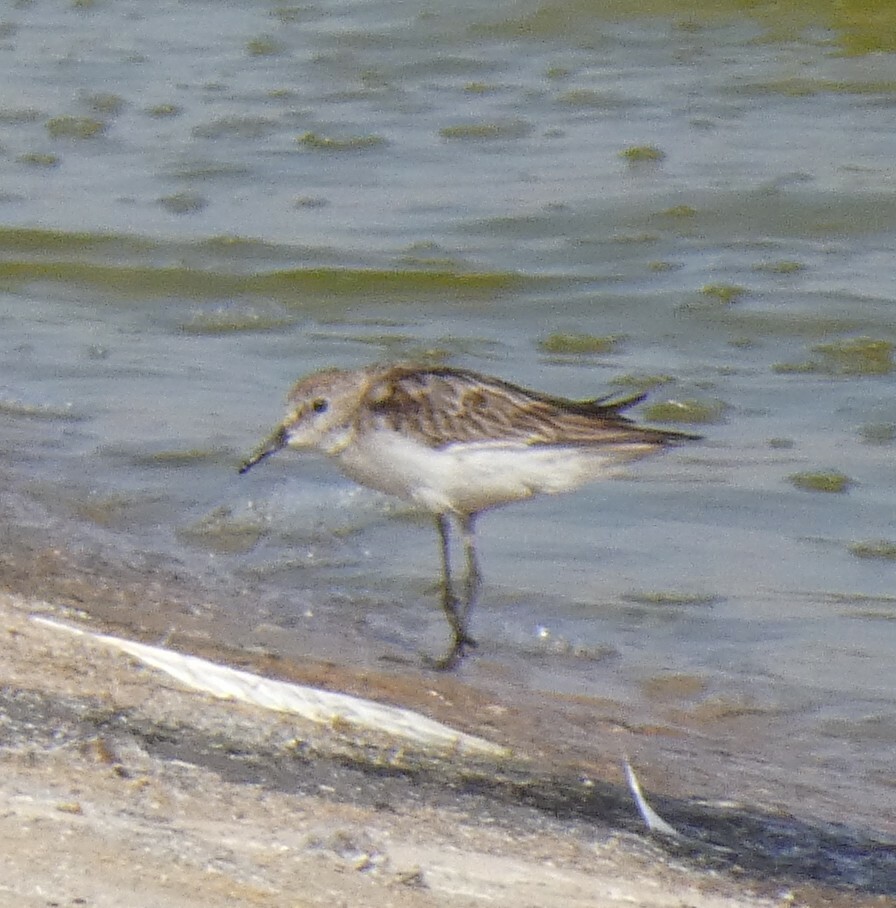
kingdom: Animalia
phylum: Chordata
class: Aves
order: Charadriiformes
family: Scolopacidae
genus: Calidris
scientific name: Calidris minuta
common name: Little stint
